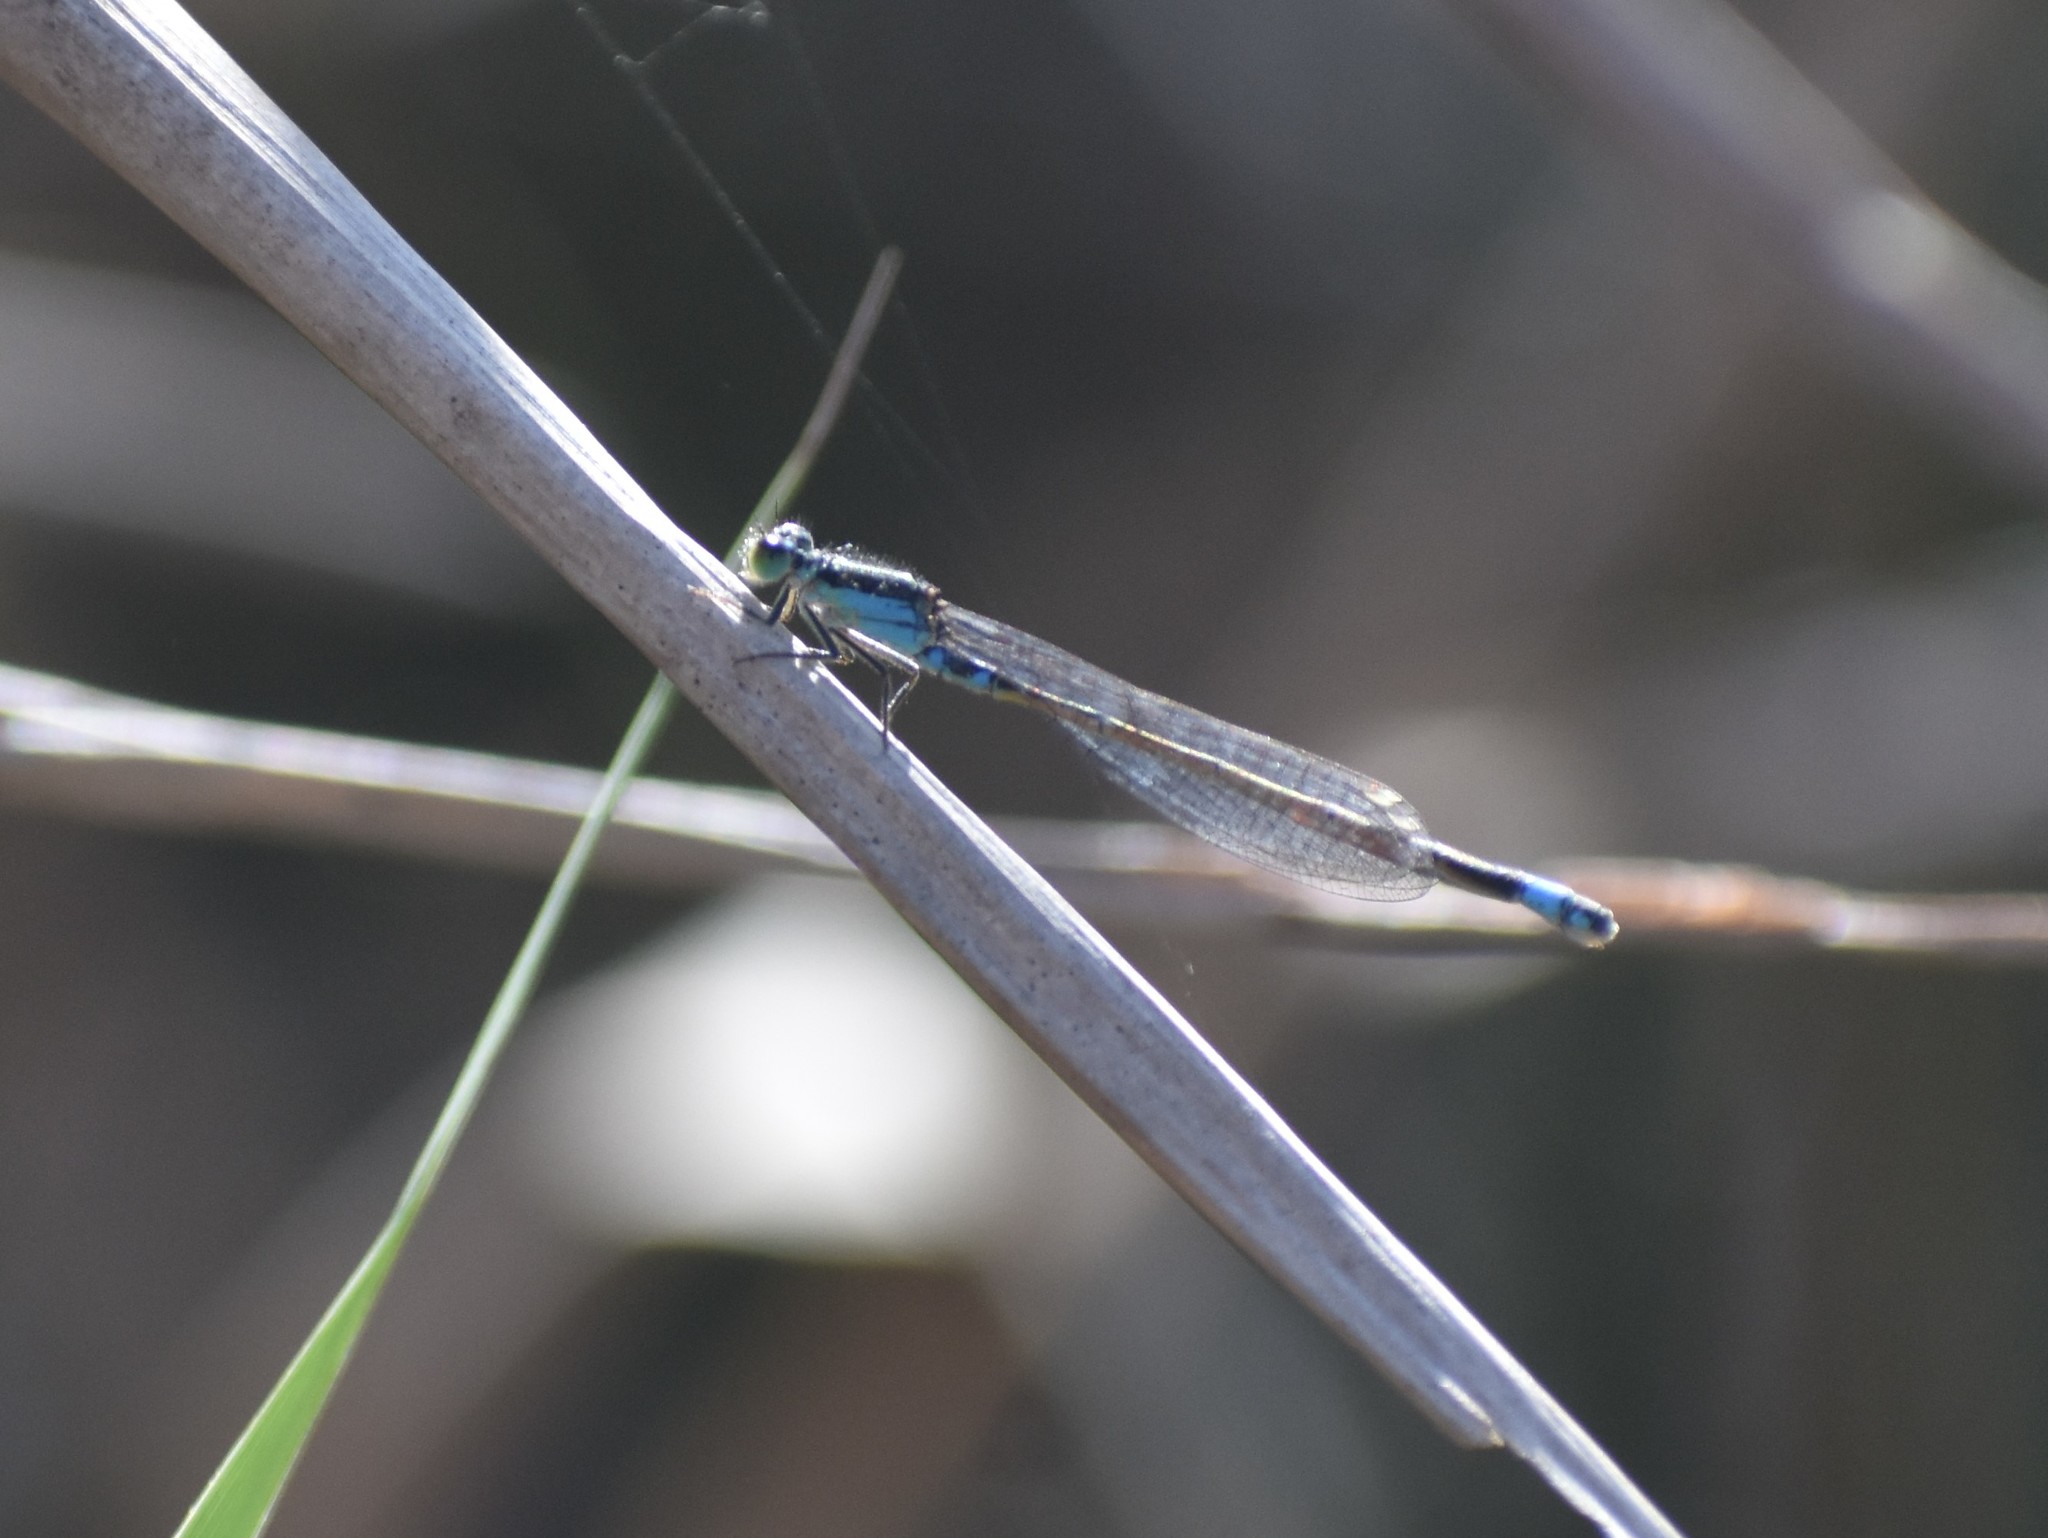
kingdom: Animalia
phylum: Arthropoda
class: Insecta
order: Odonata
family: Coenagrionidae
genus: Ischnura
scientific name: Ischnura senegalensis
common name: Tropical bluetail
